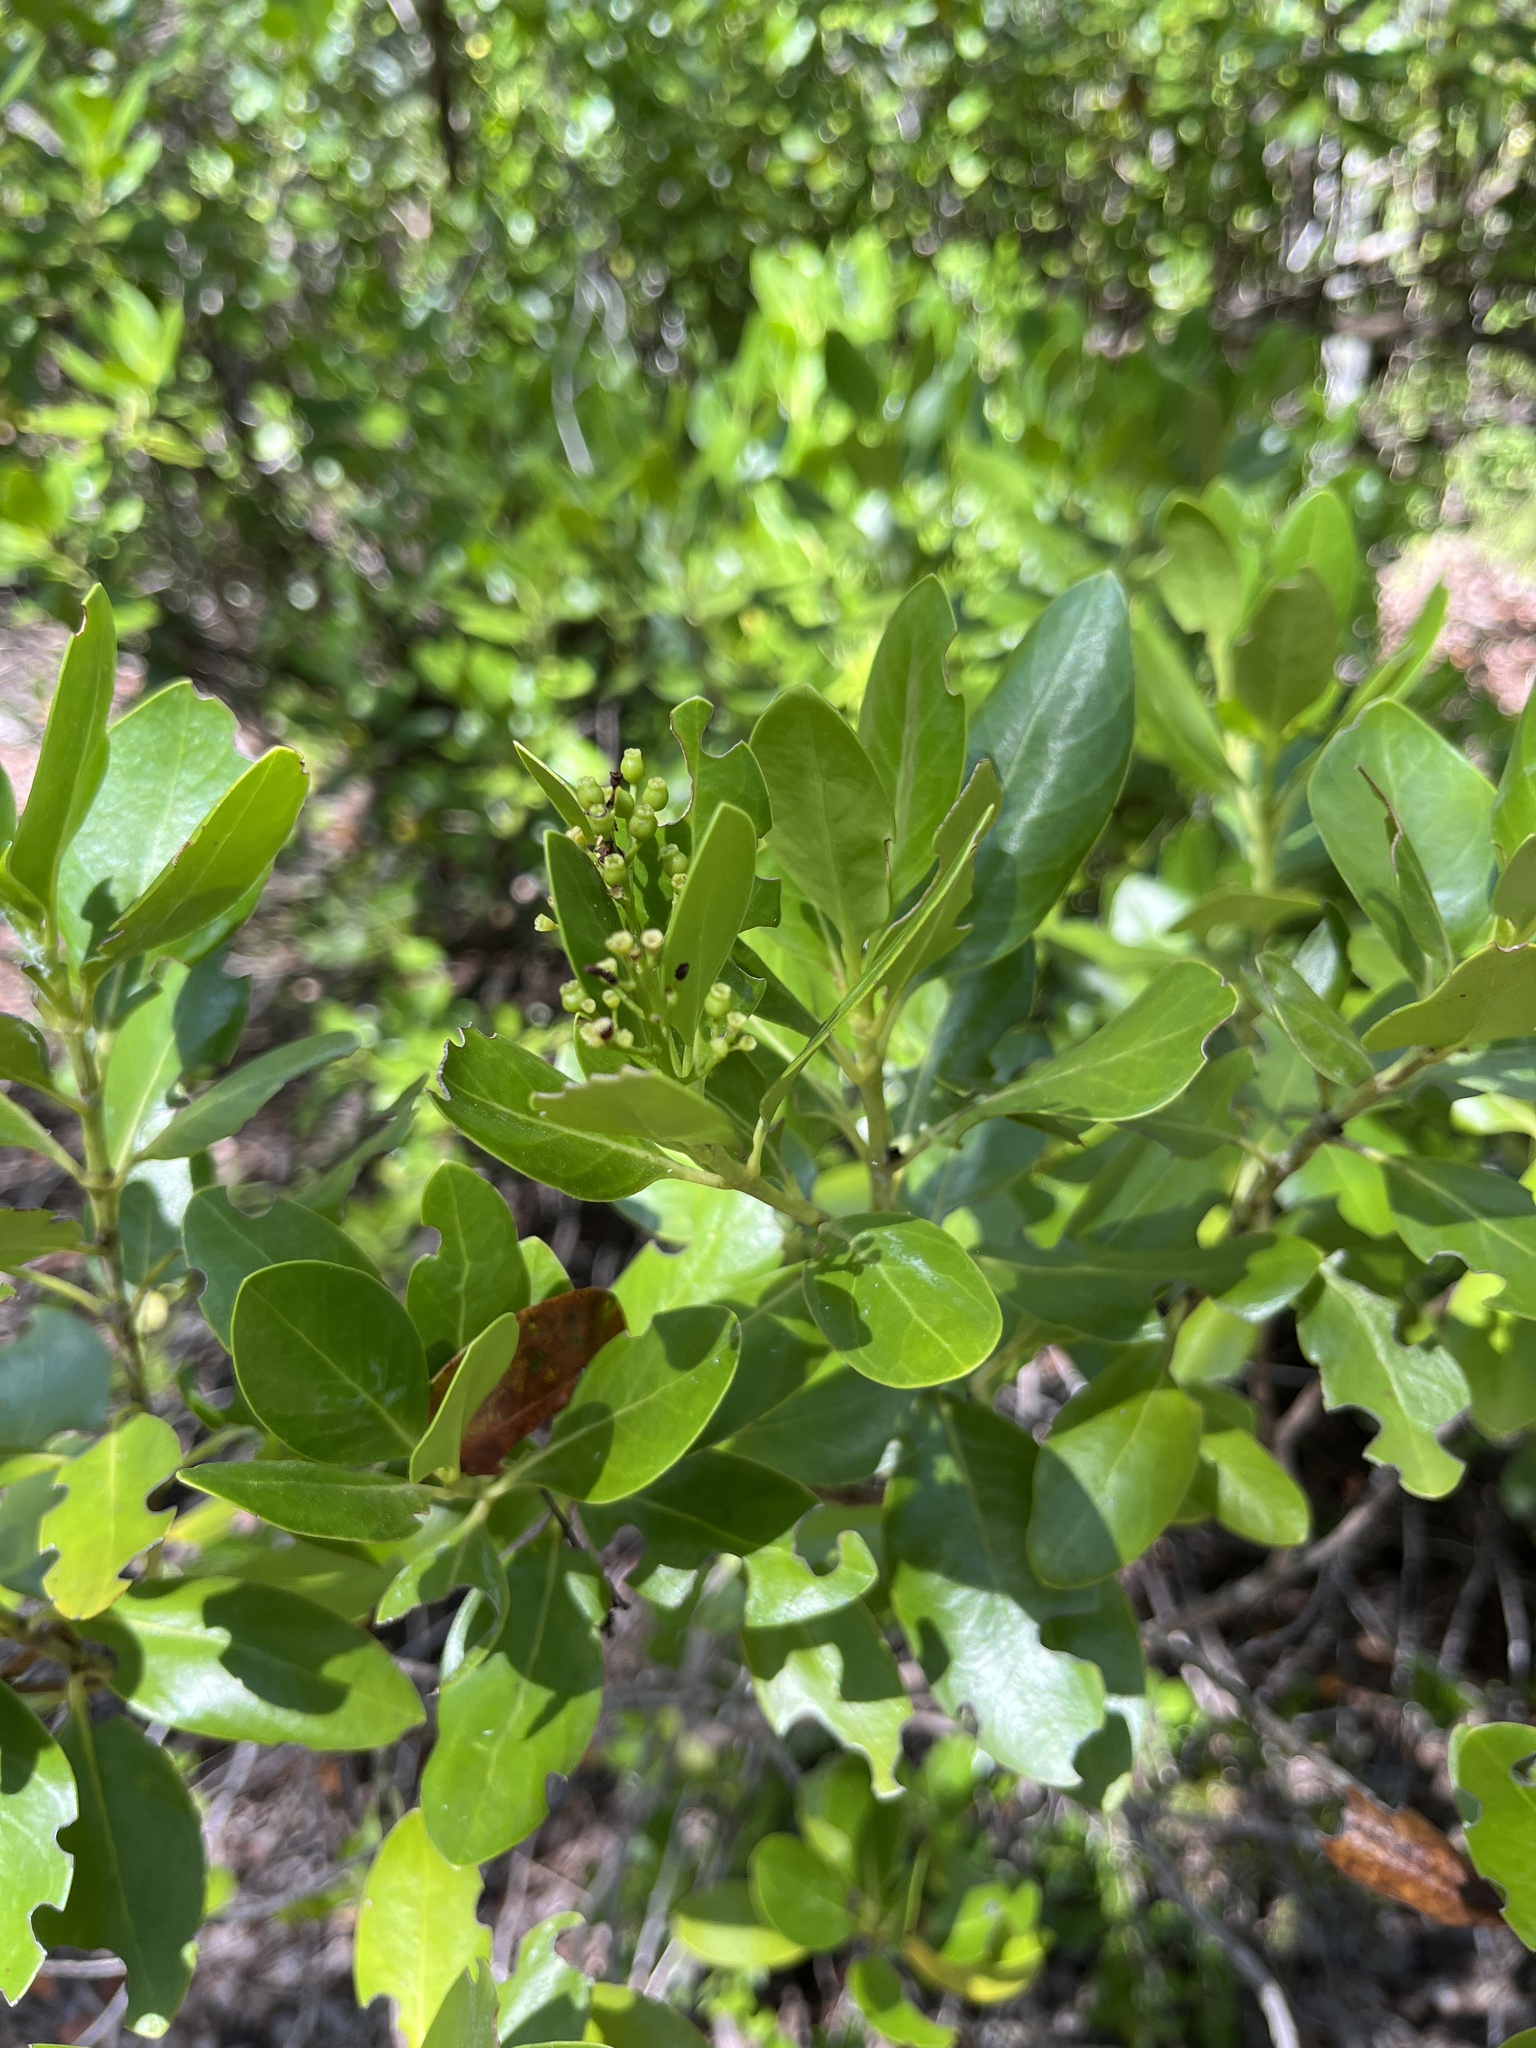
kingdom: Plantae
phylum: Tracheophyta
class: Magnoliopsida
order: Gentianales
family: Rubiaceae
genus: Erithalis
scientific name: Erithalis fruticosa
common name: Candlewood
